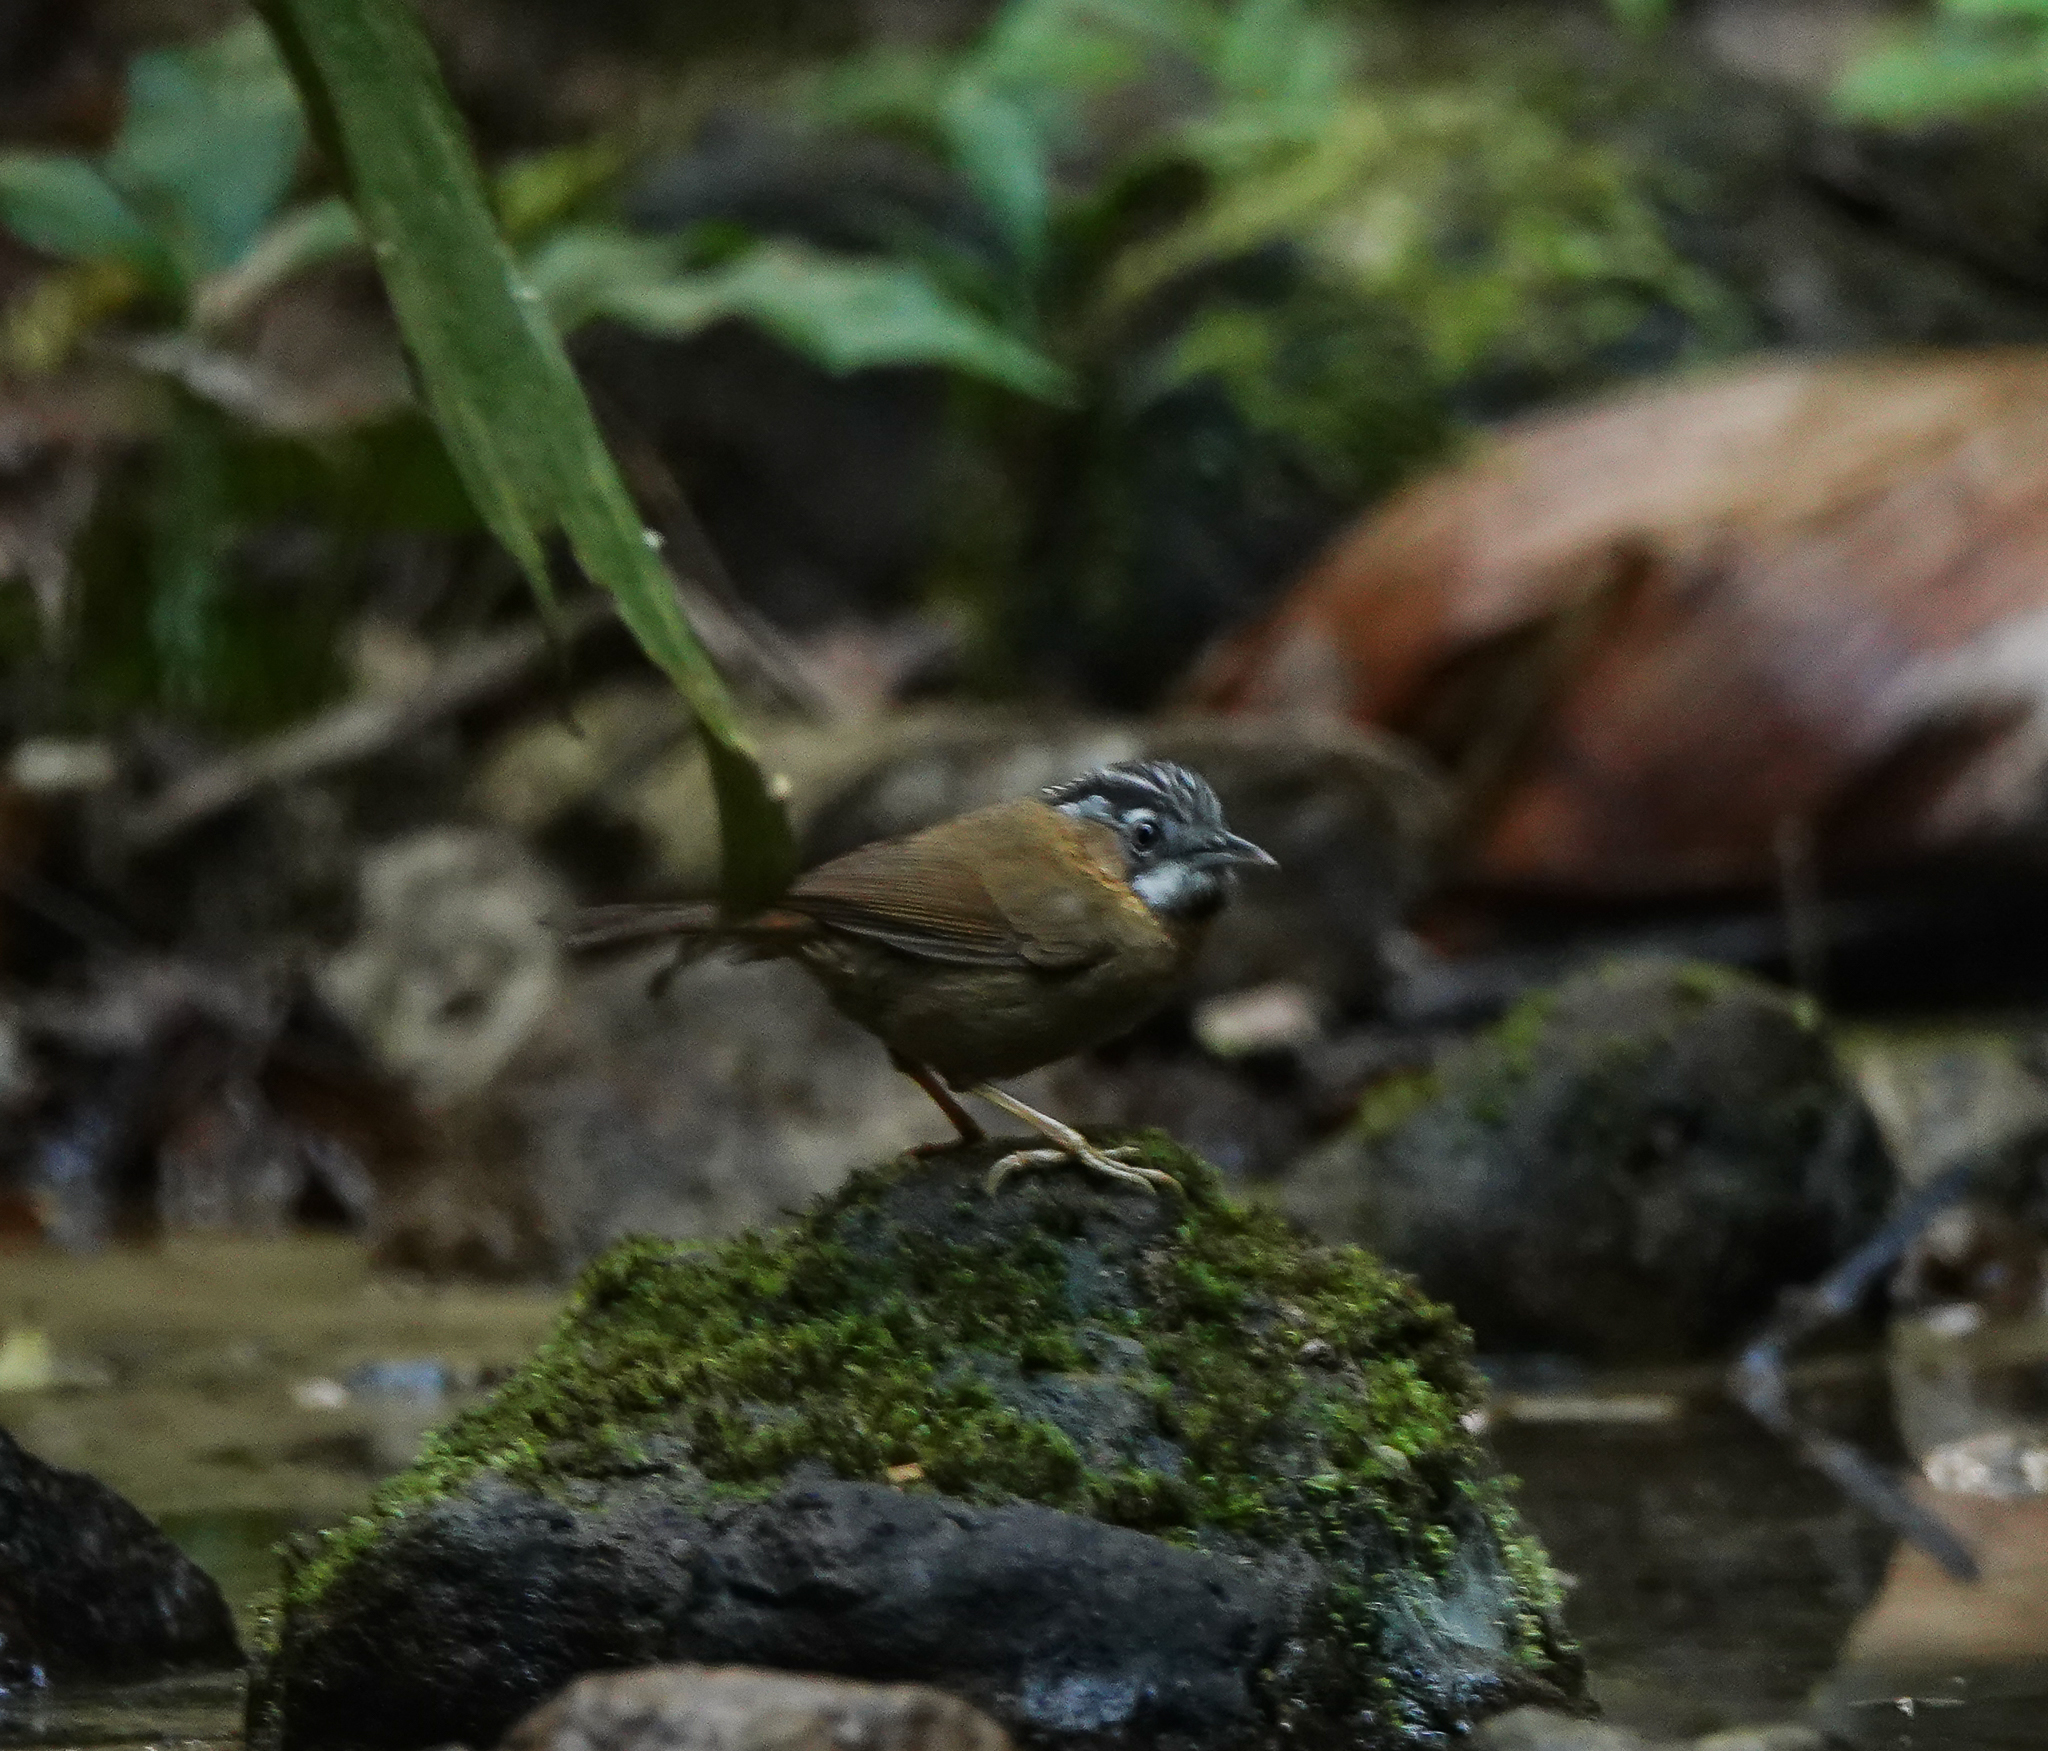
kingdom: Animalia
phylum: Chordata
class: Aves
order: Passeriformes
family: Timaliidae
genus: Stachyris
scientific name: Stachyris nigriceps
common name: Grey-throated babbler
